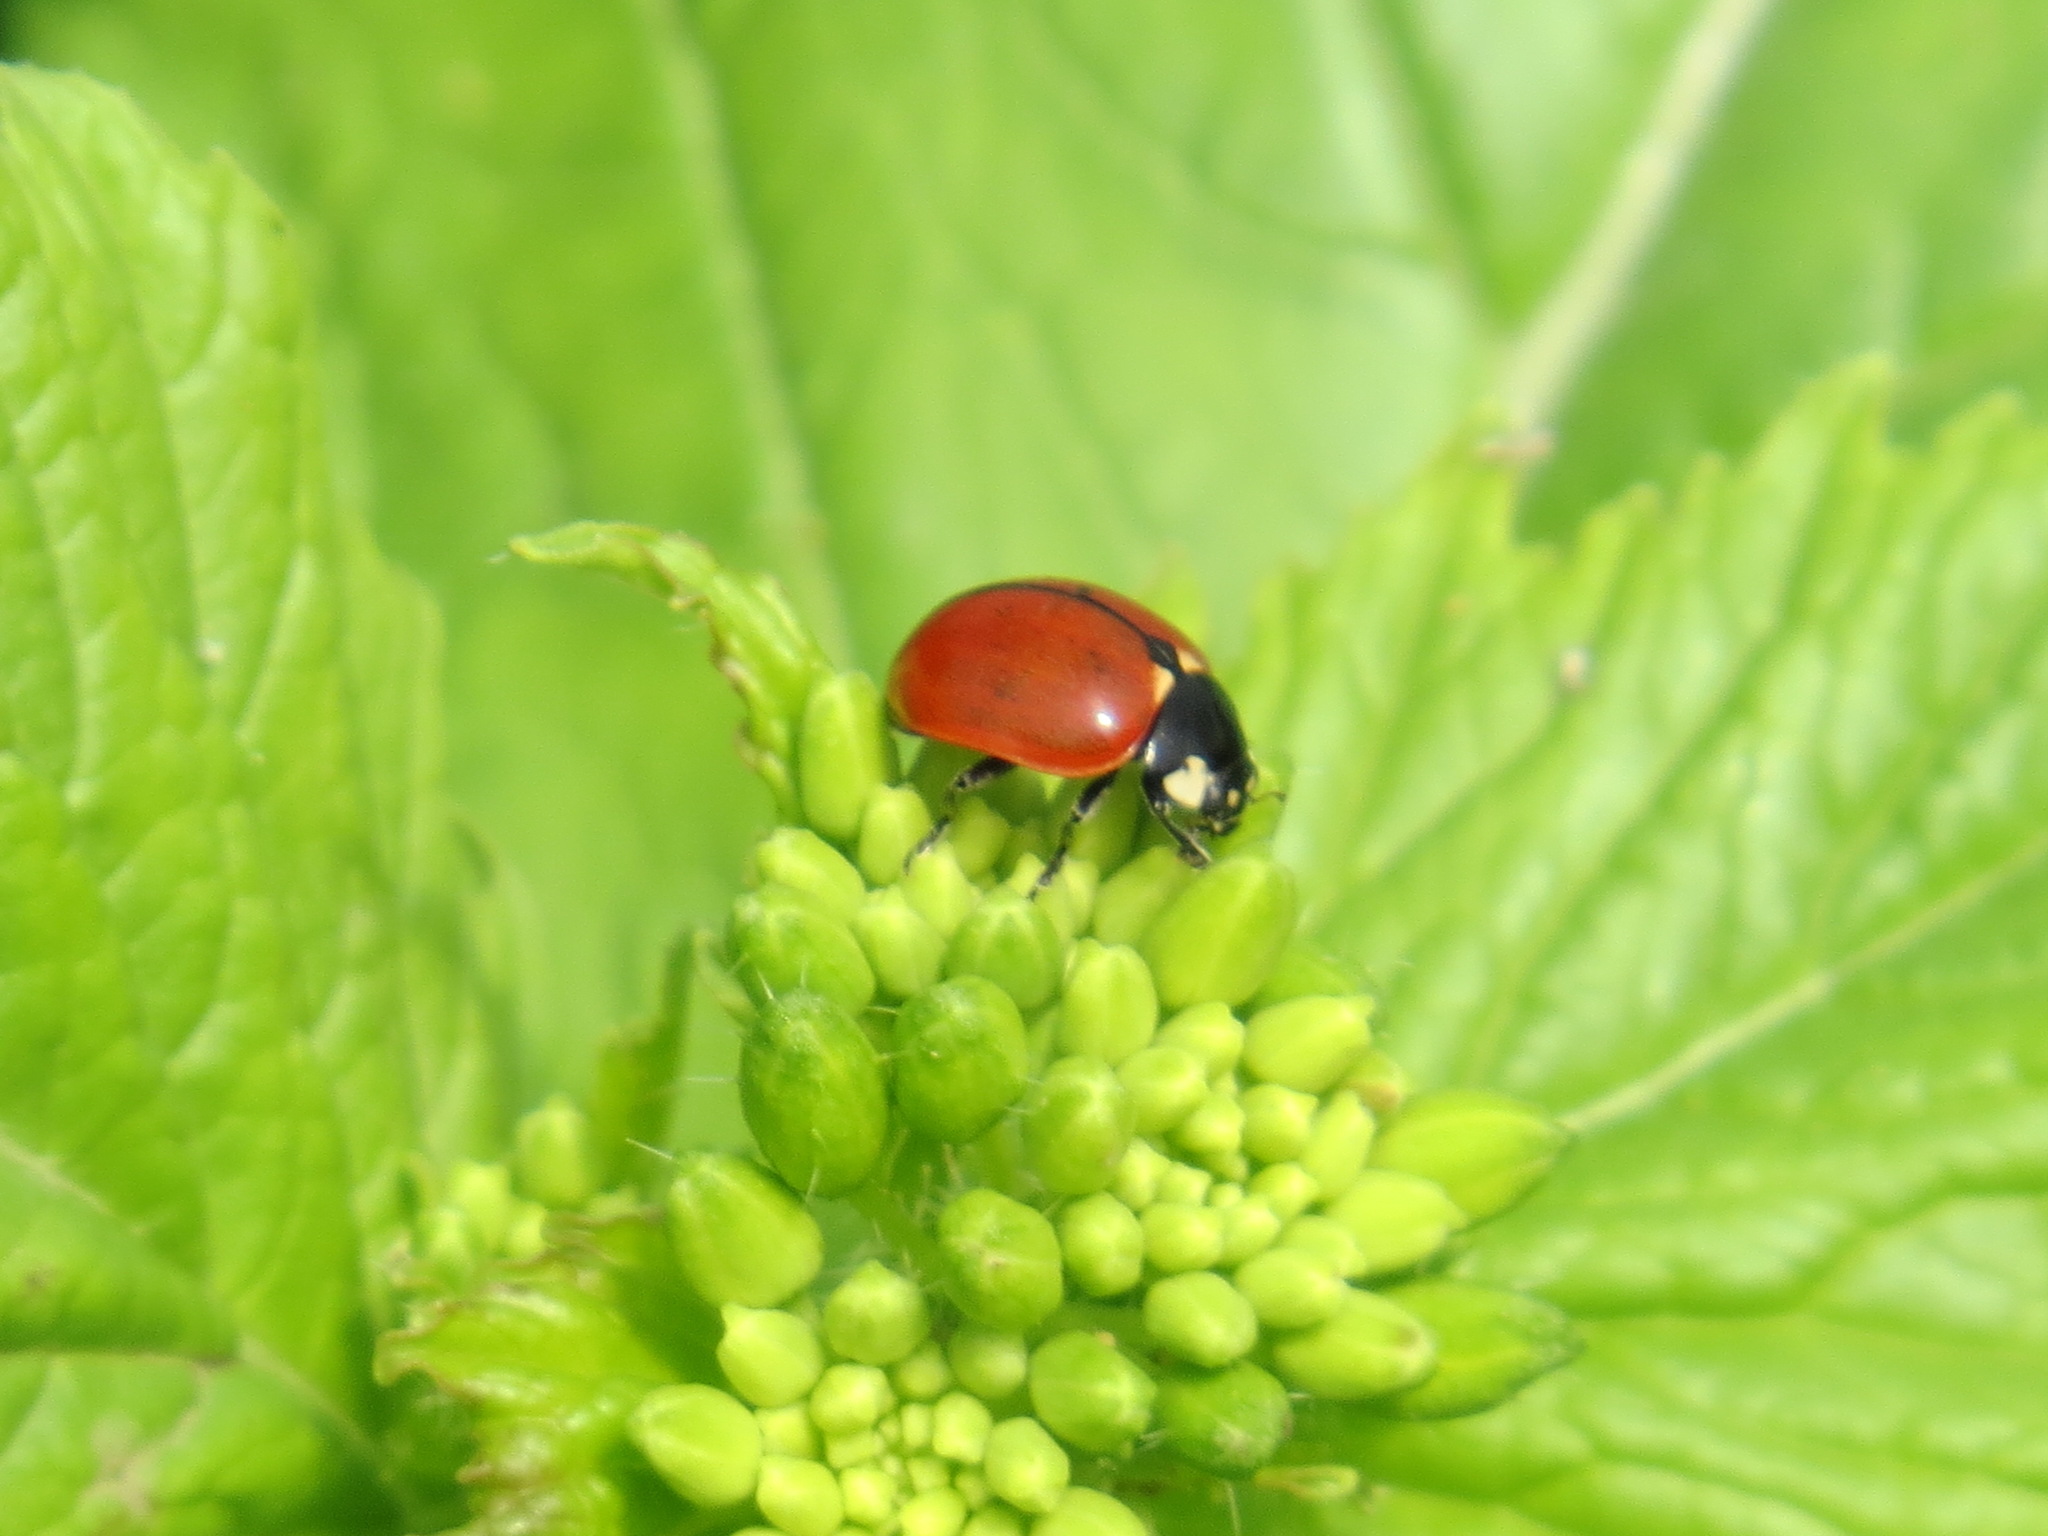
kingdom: Animalia
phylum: Arthropoda
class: Insecta
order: Coleoptera
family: Coccinellidae
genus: Coccinella
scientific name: Coccinella californica
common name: Lady beetle
